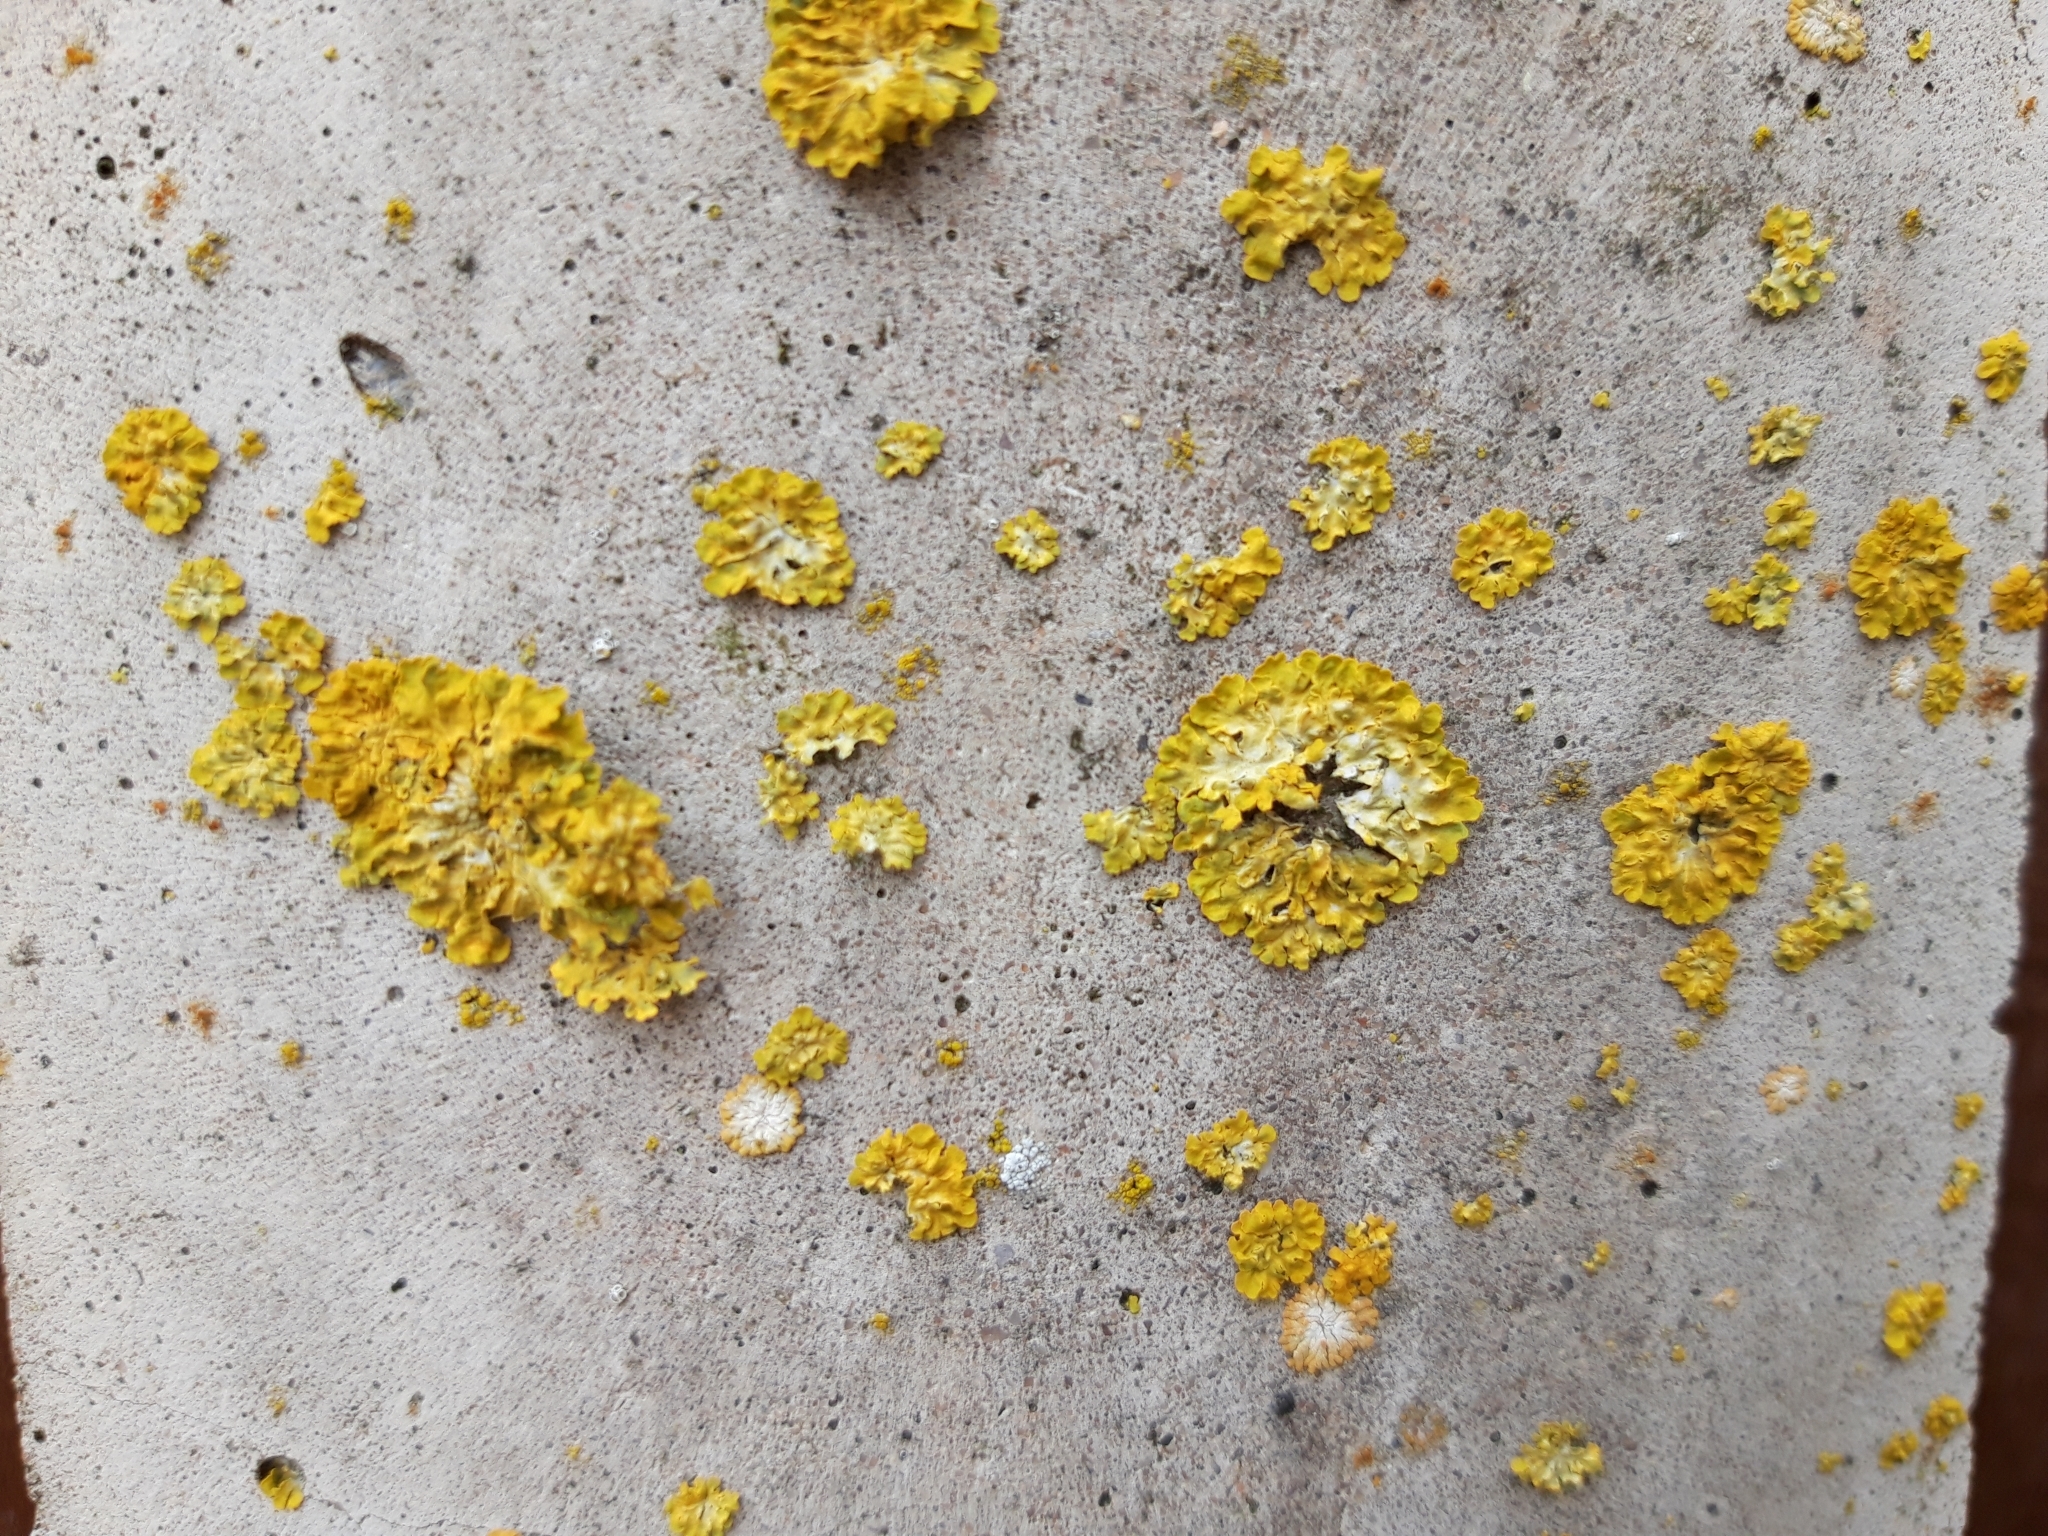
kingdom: Fungi
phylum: Ascomycota
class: Lecanoromycetes
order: Teloschistales
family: Teloschistaceae
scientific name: Teloschistaceae
